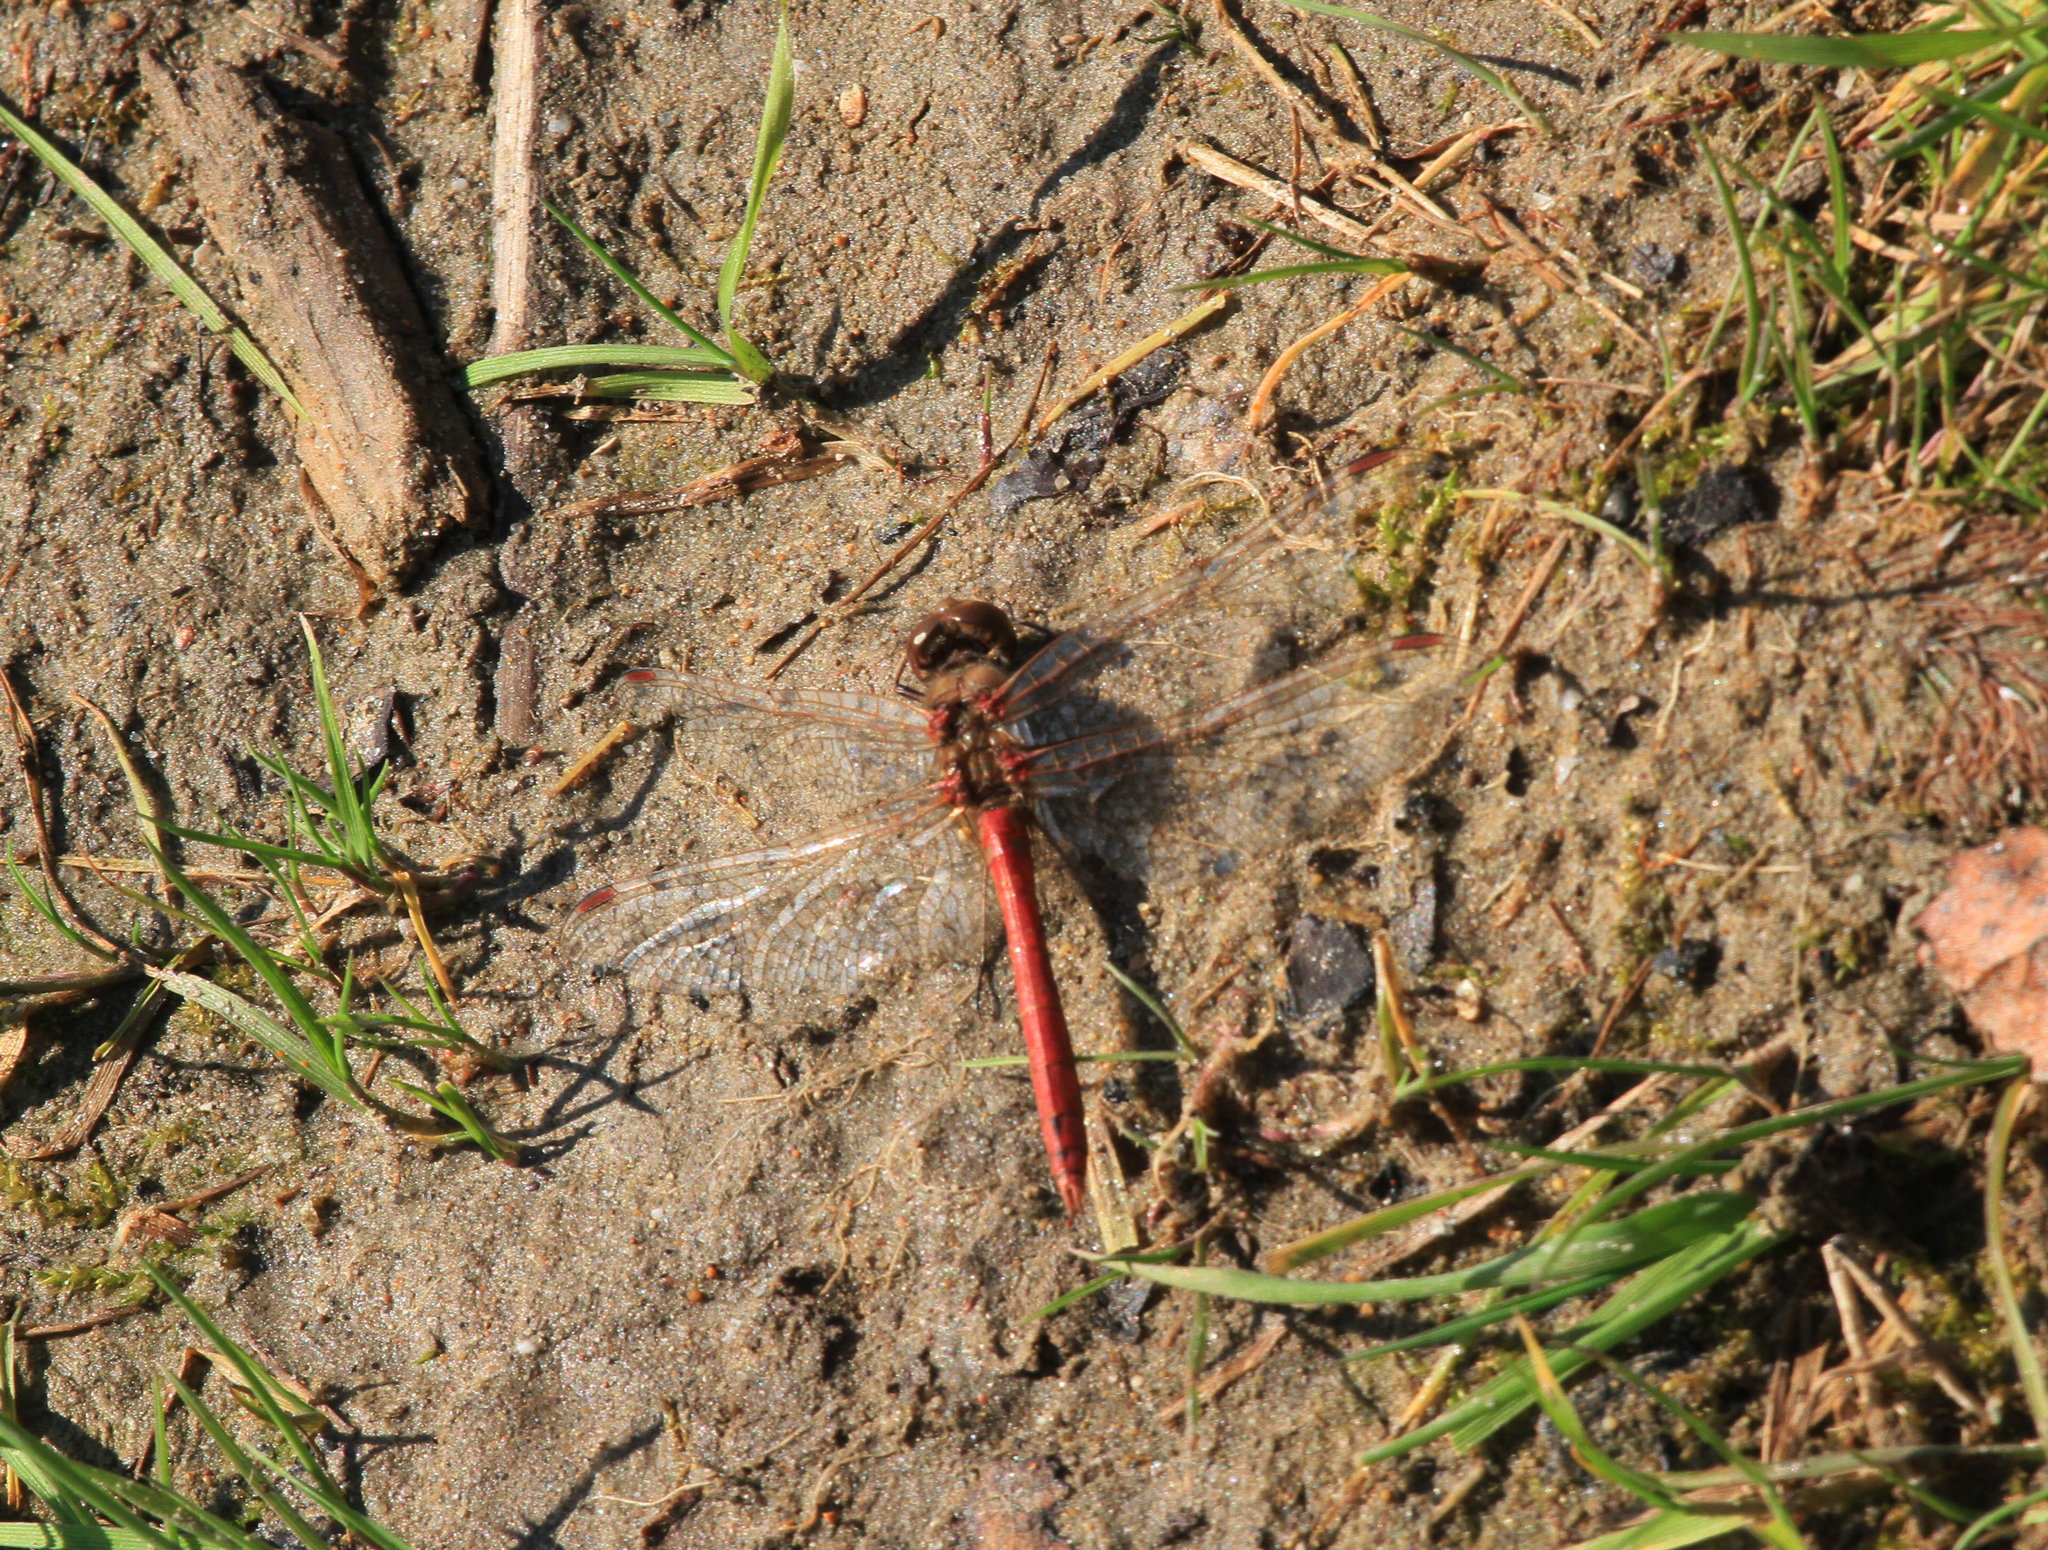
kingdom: Animalia
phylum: Arthropoda
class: Insecta
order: Odonata
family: Libellulidae
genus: Sympetrum
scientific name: Sympetrum vulgatum
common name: Vagrant darter
